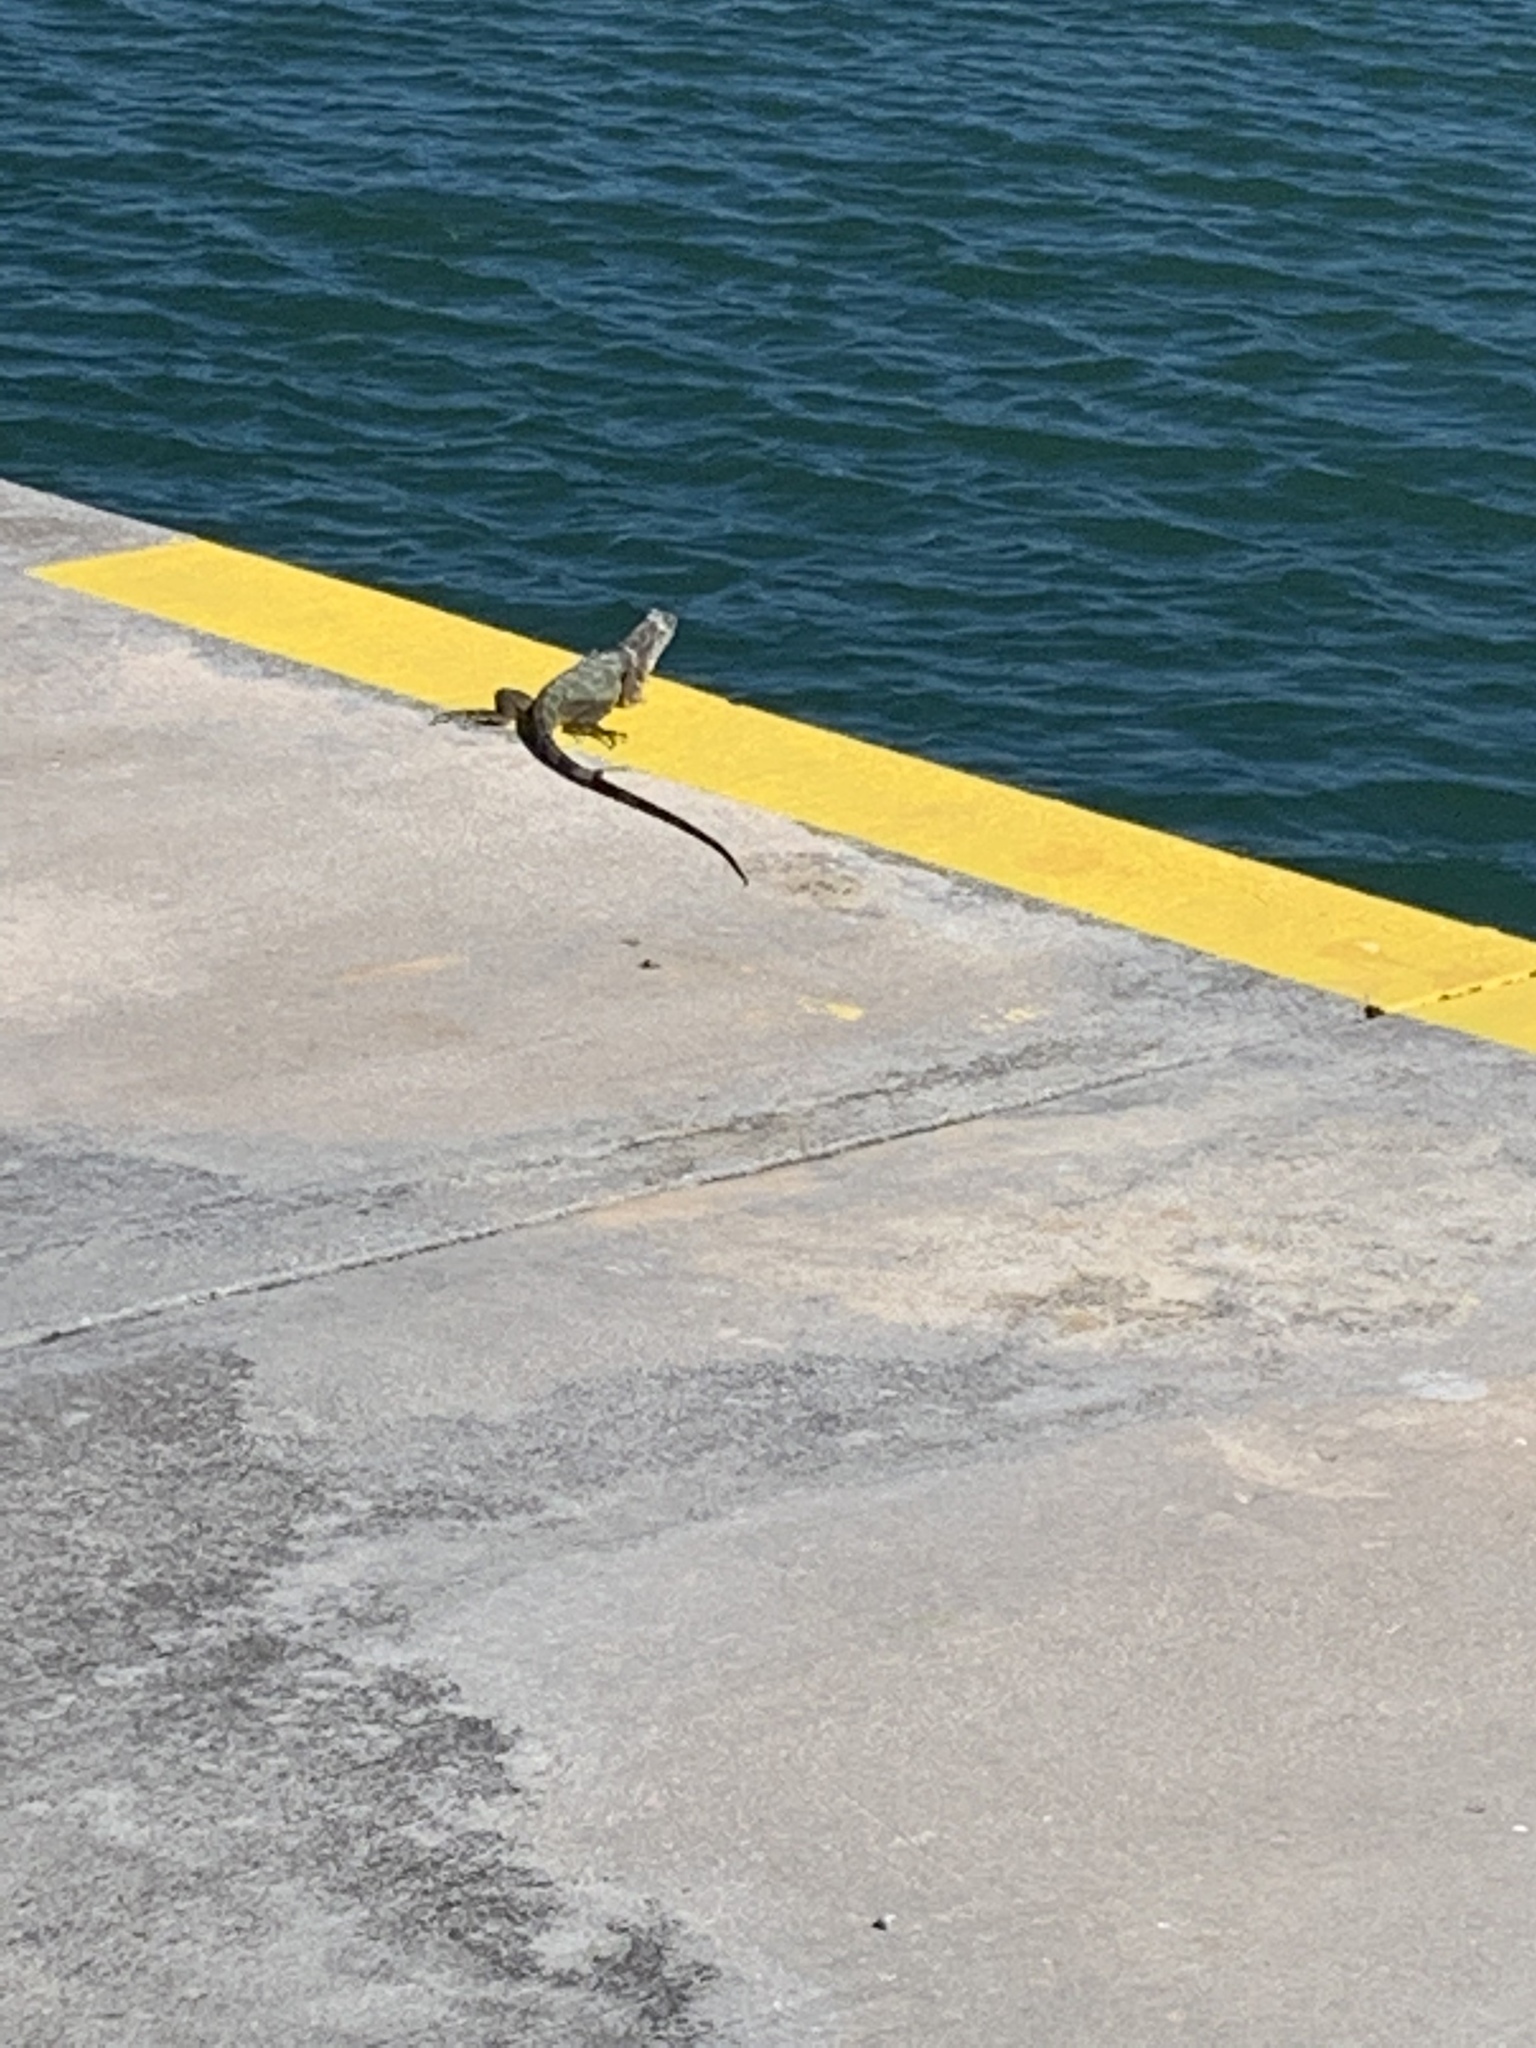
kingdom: Animalia
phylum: Chordata
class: Squamata
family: Iguanidae
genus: Iguana
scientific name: Iguana iguana
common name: Green iguana
